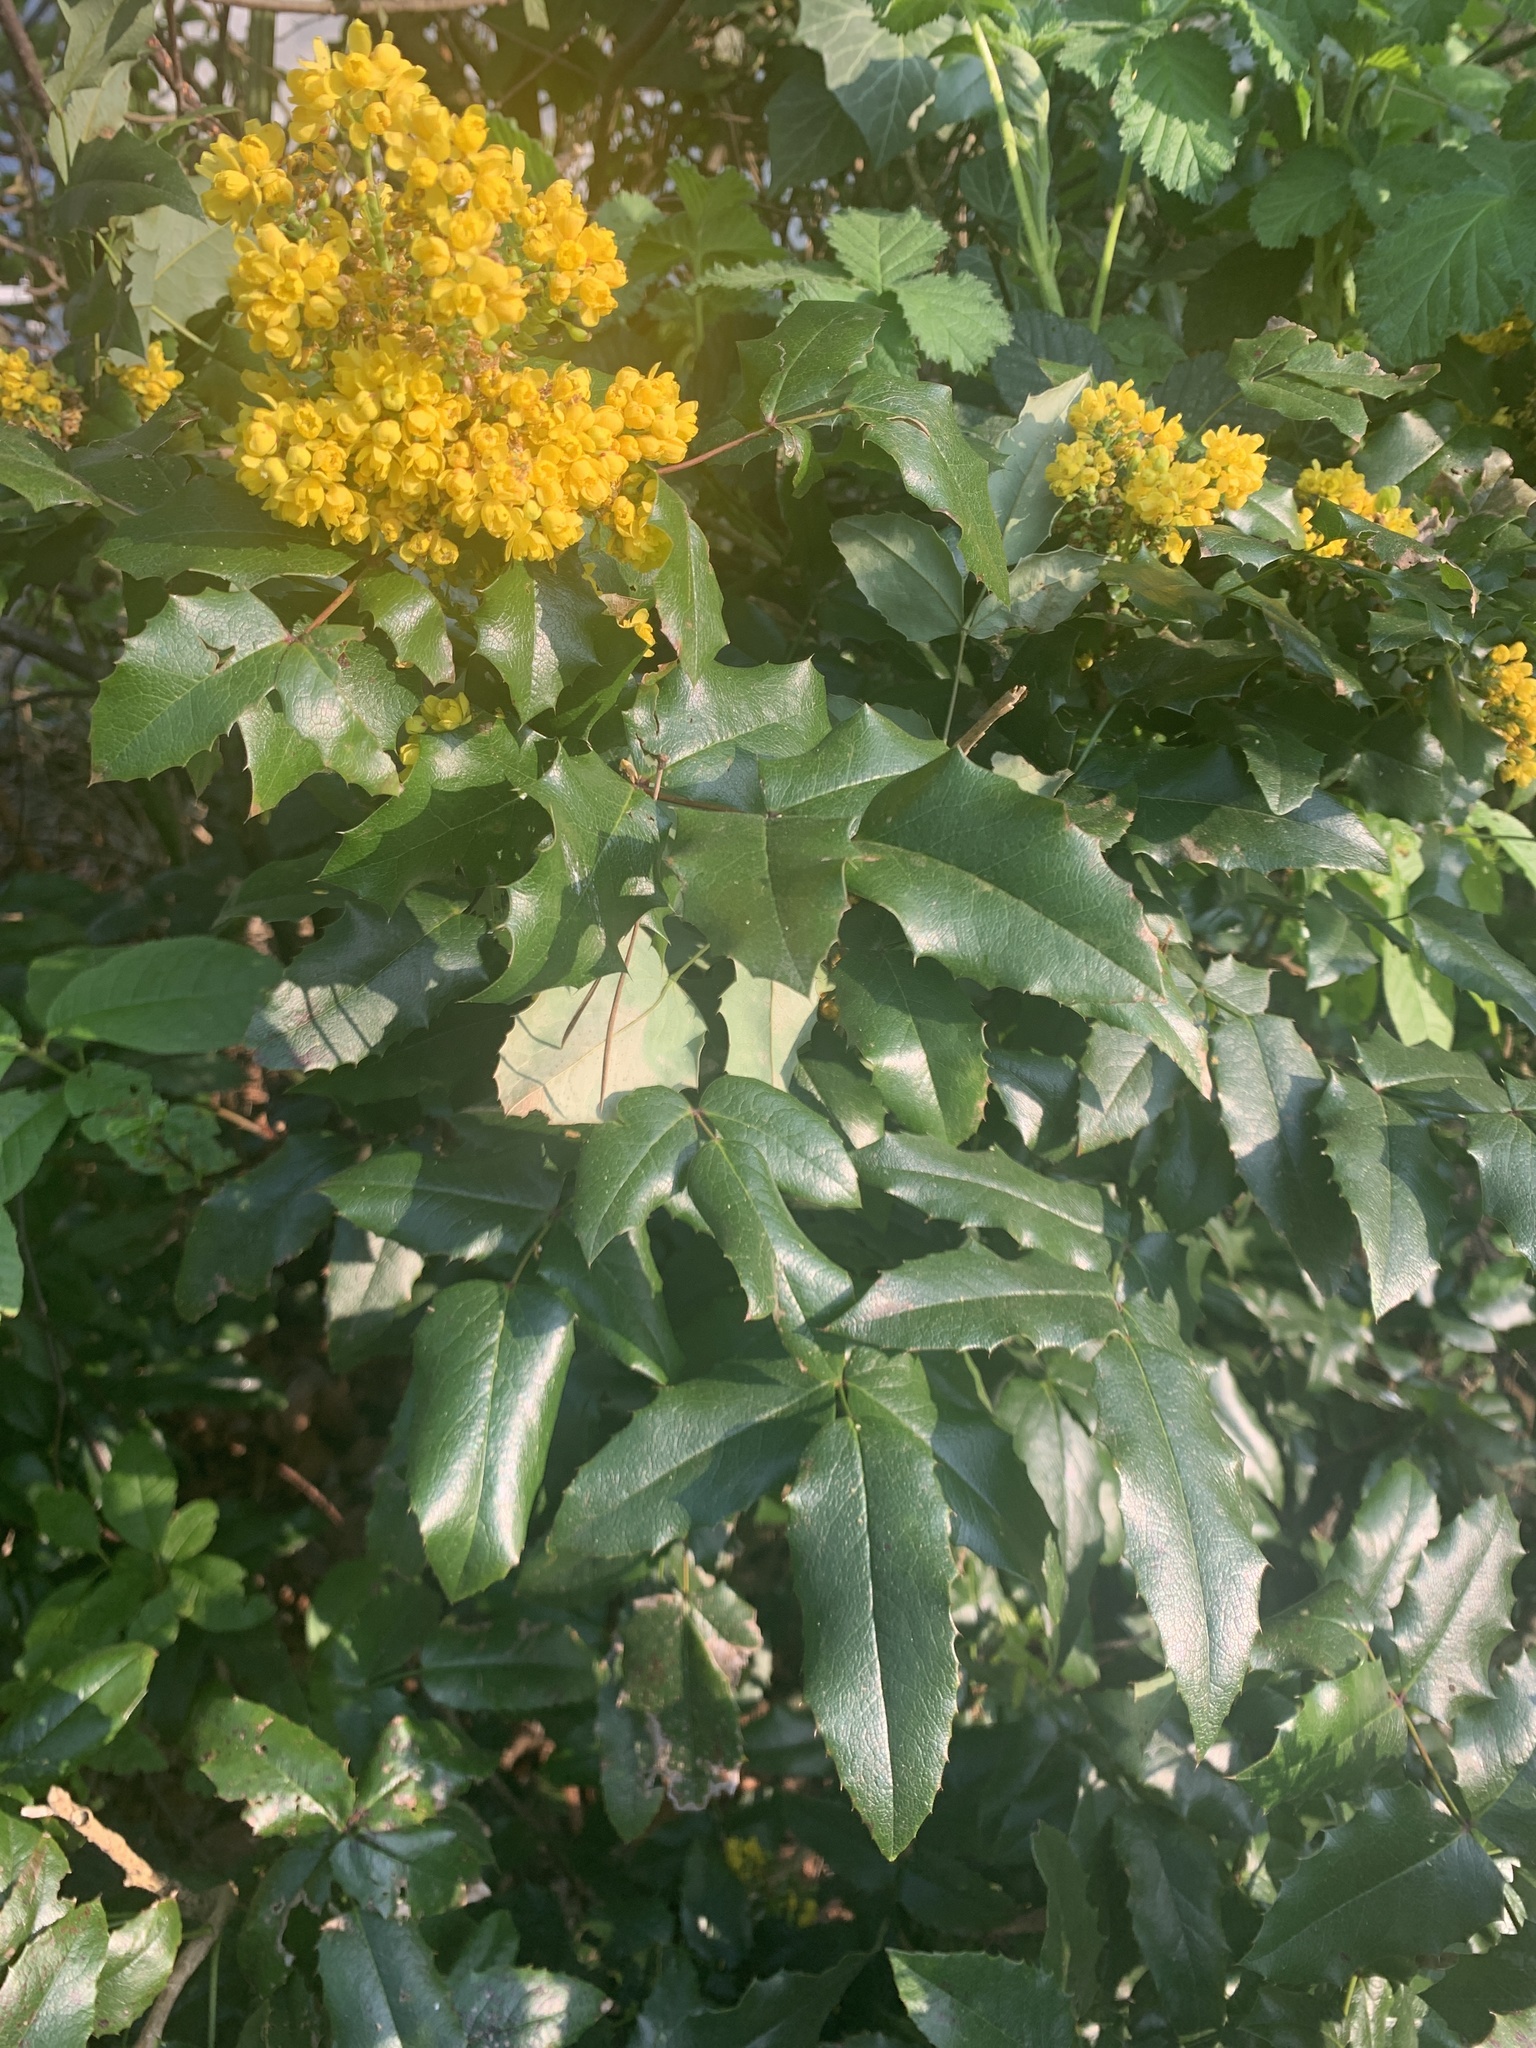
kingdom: Plantae
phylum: Tracheophyta
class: Magnoliopsida
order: Ranunculales
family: Berberidaceae
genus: Mahonia
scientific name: Mahonia aquifolium
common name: Oregon-grape
